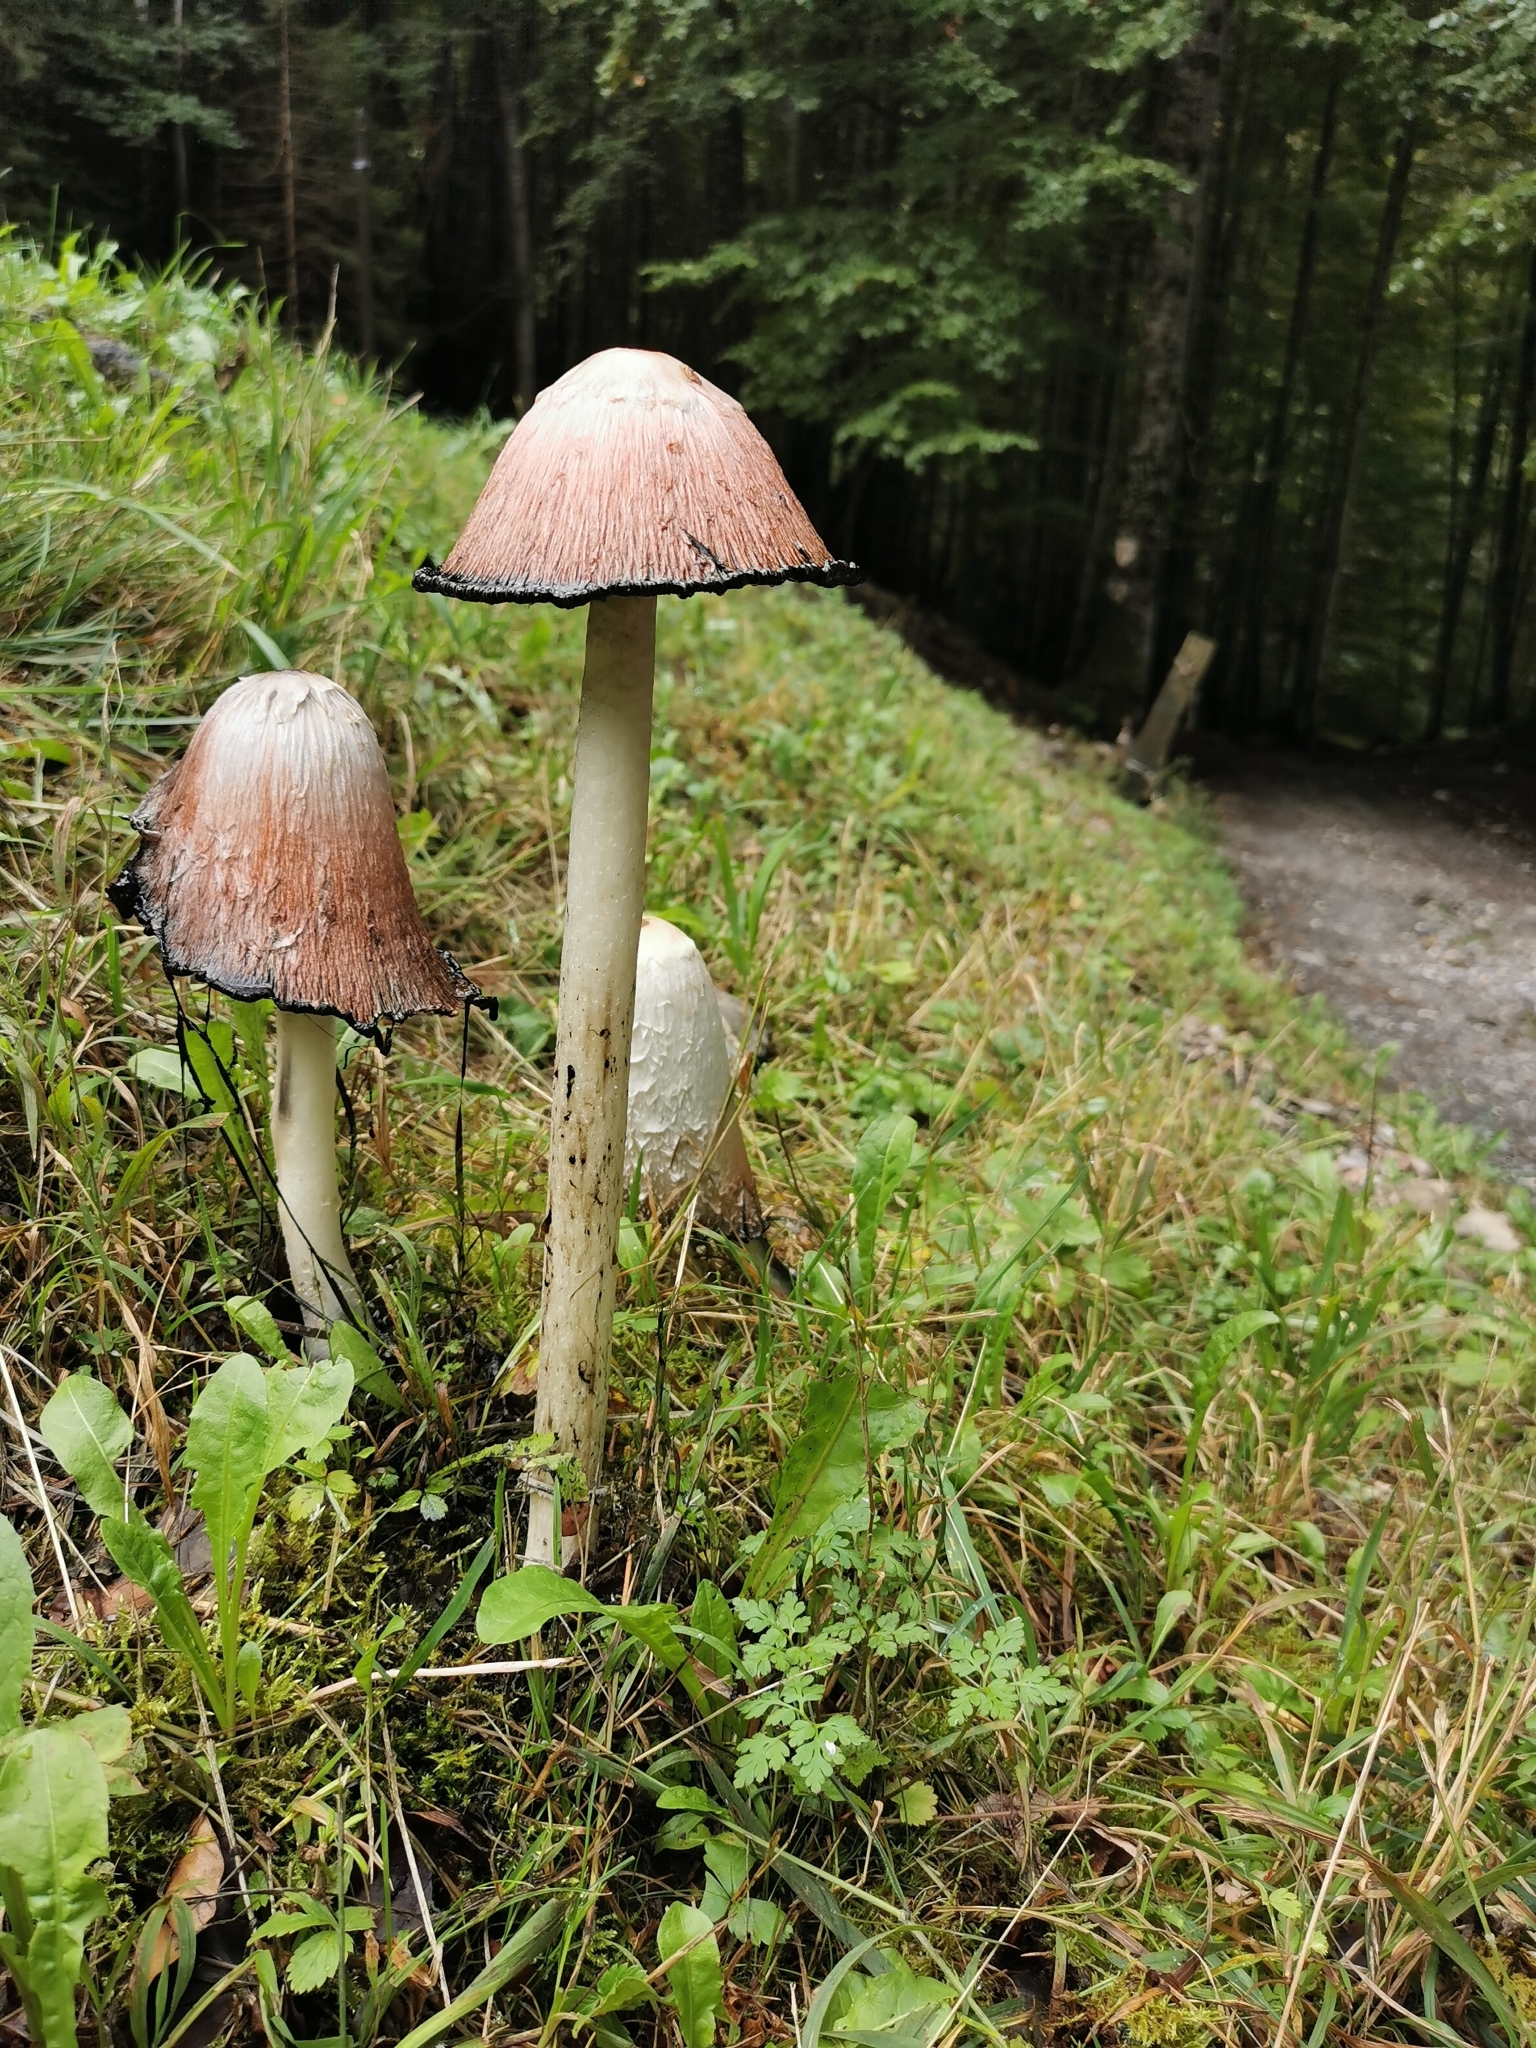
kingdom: Fungi
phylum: Basidiomycota
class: Agaricomycetes
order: Agaricales
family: Agaricaceae
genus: Coprinus
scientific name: Coprinus comatus
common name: Lawyer's wig
